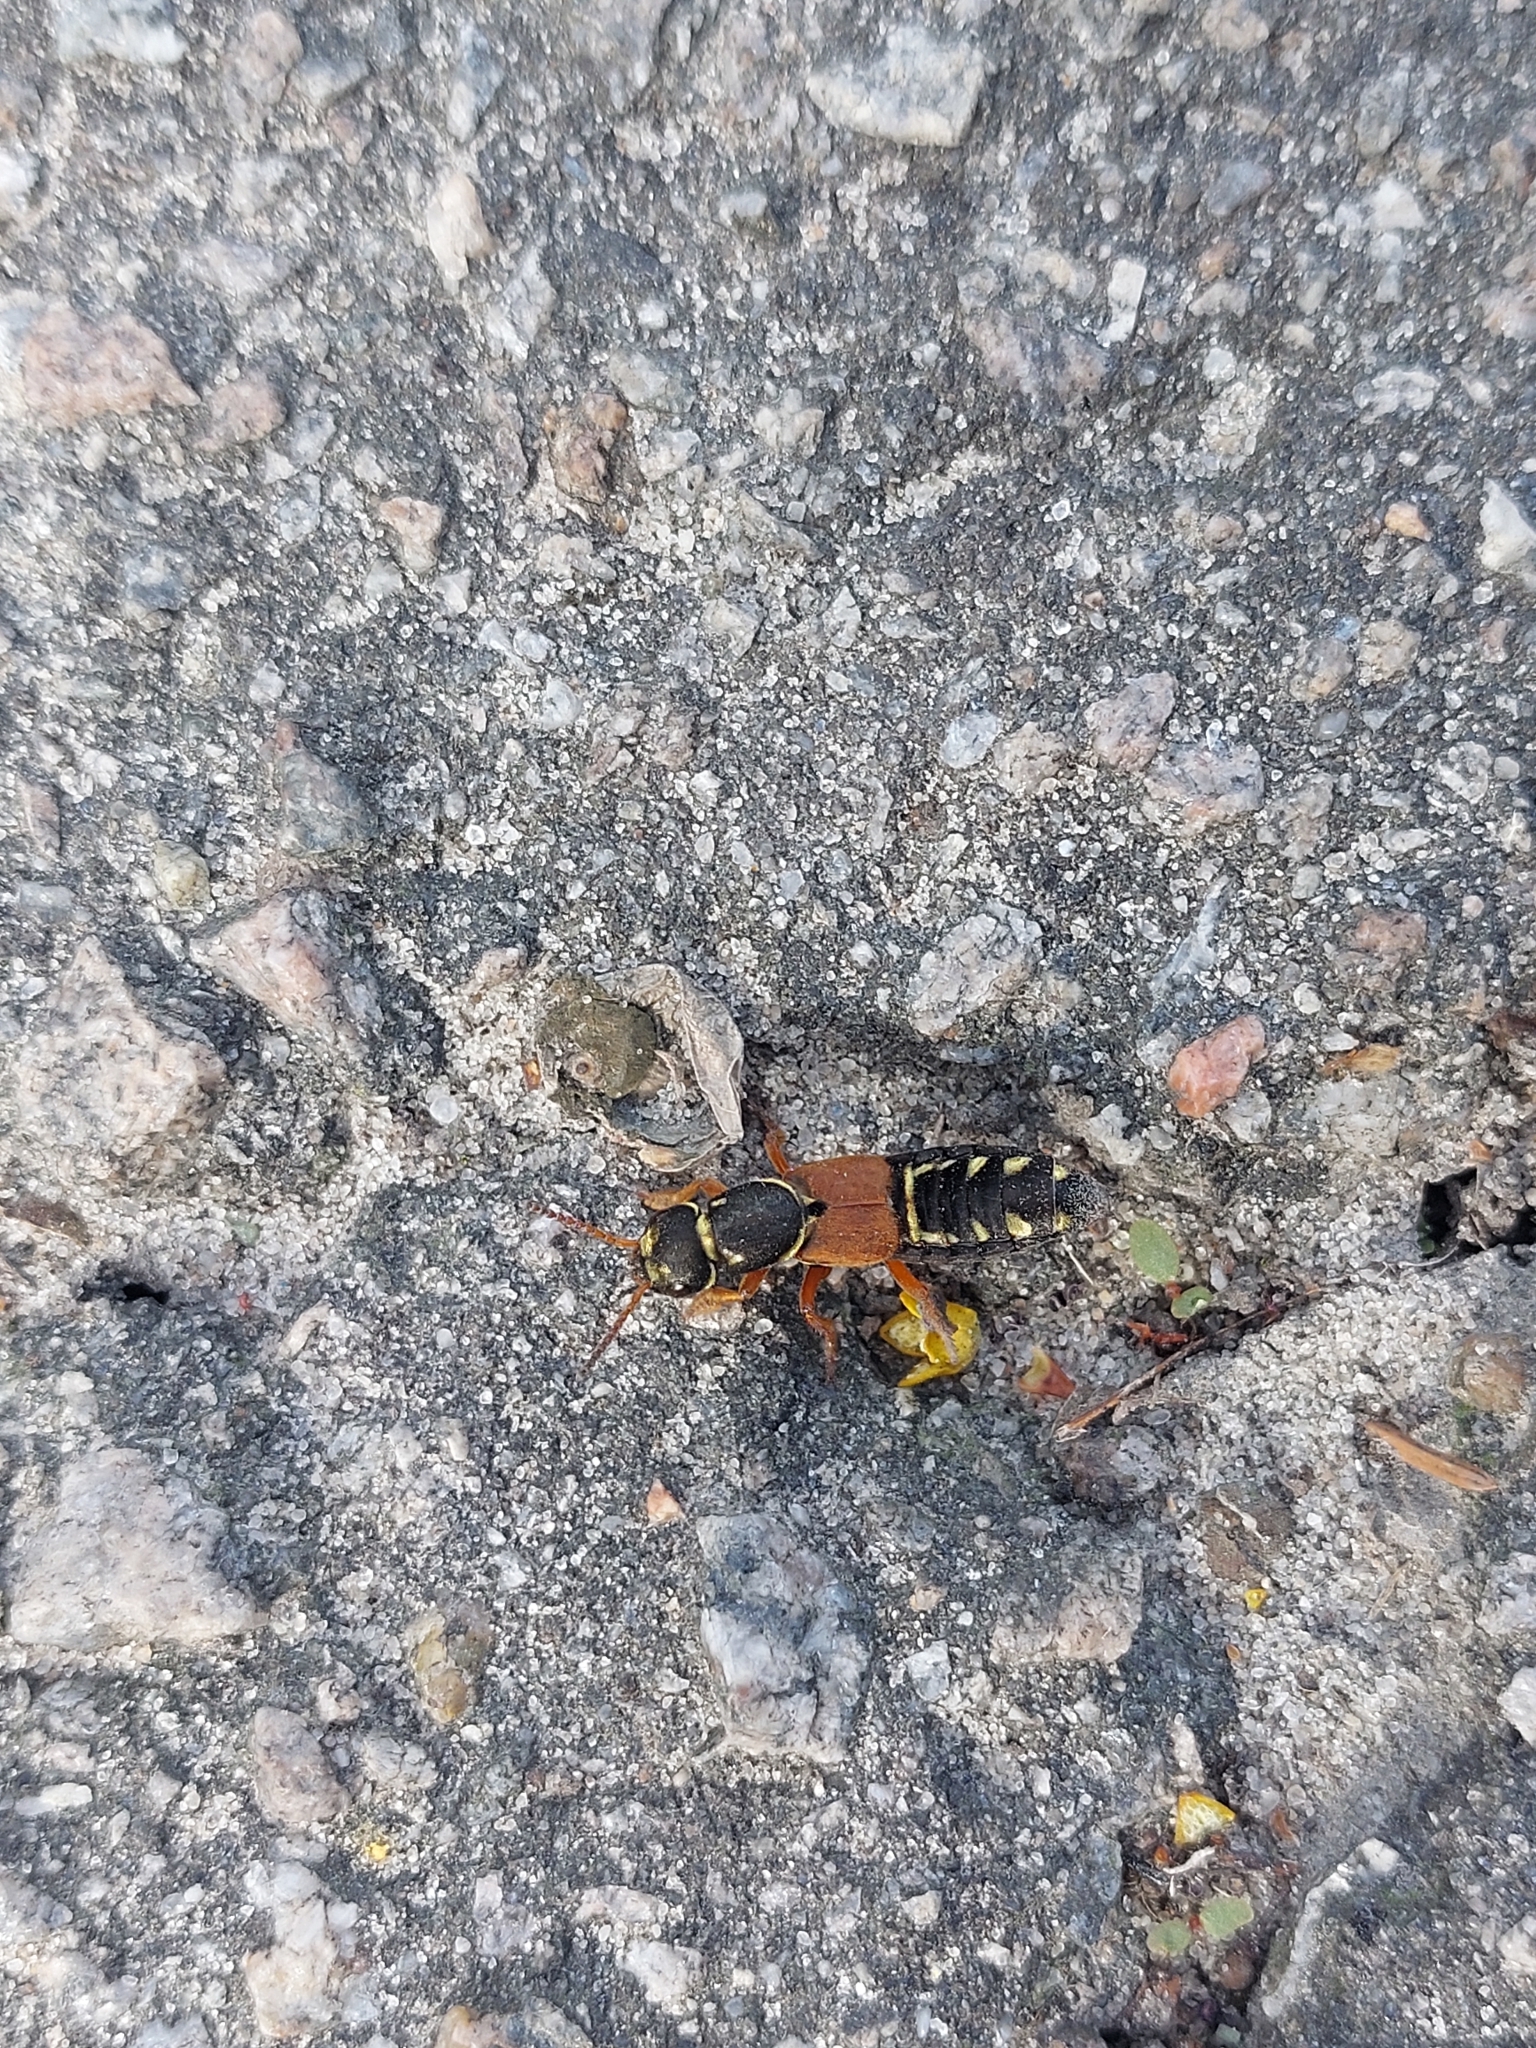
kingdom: Animalia
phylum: Arthropoda
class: Insecta
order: Coleoptera
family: Staphylinidae
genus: Staphylinus
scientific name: Staphylinus caesareus
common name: Staph beetle
